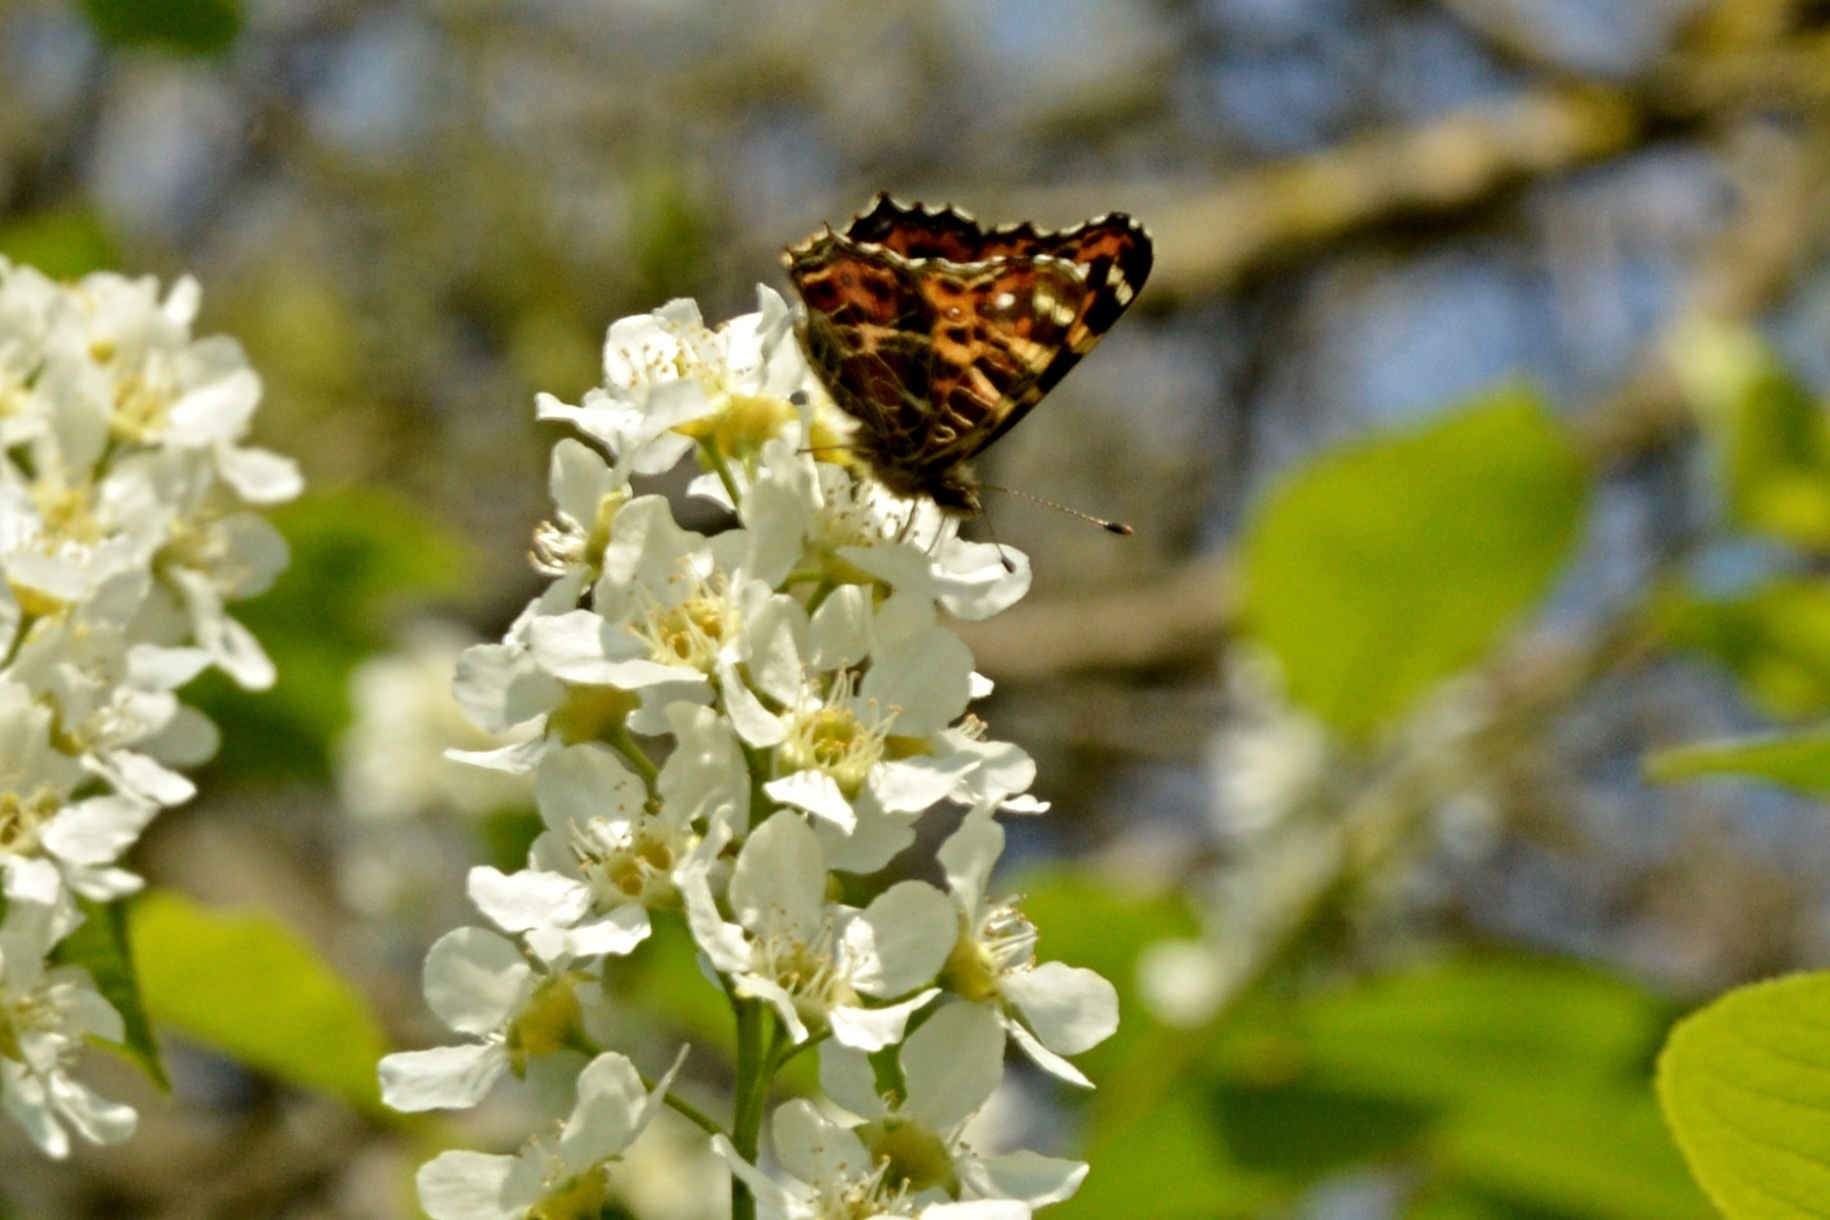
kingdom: Animalia
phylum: Arthropoda
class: Insecta
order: Lepidoptera
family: Nymphalidae
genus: Araschnia
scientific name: Araschnia levana
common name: Map butterfly
